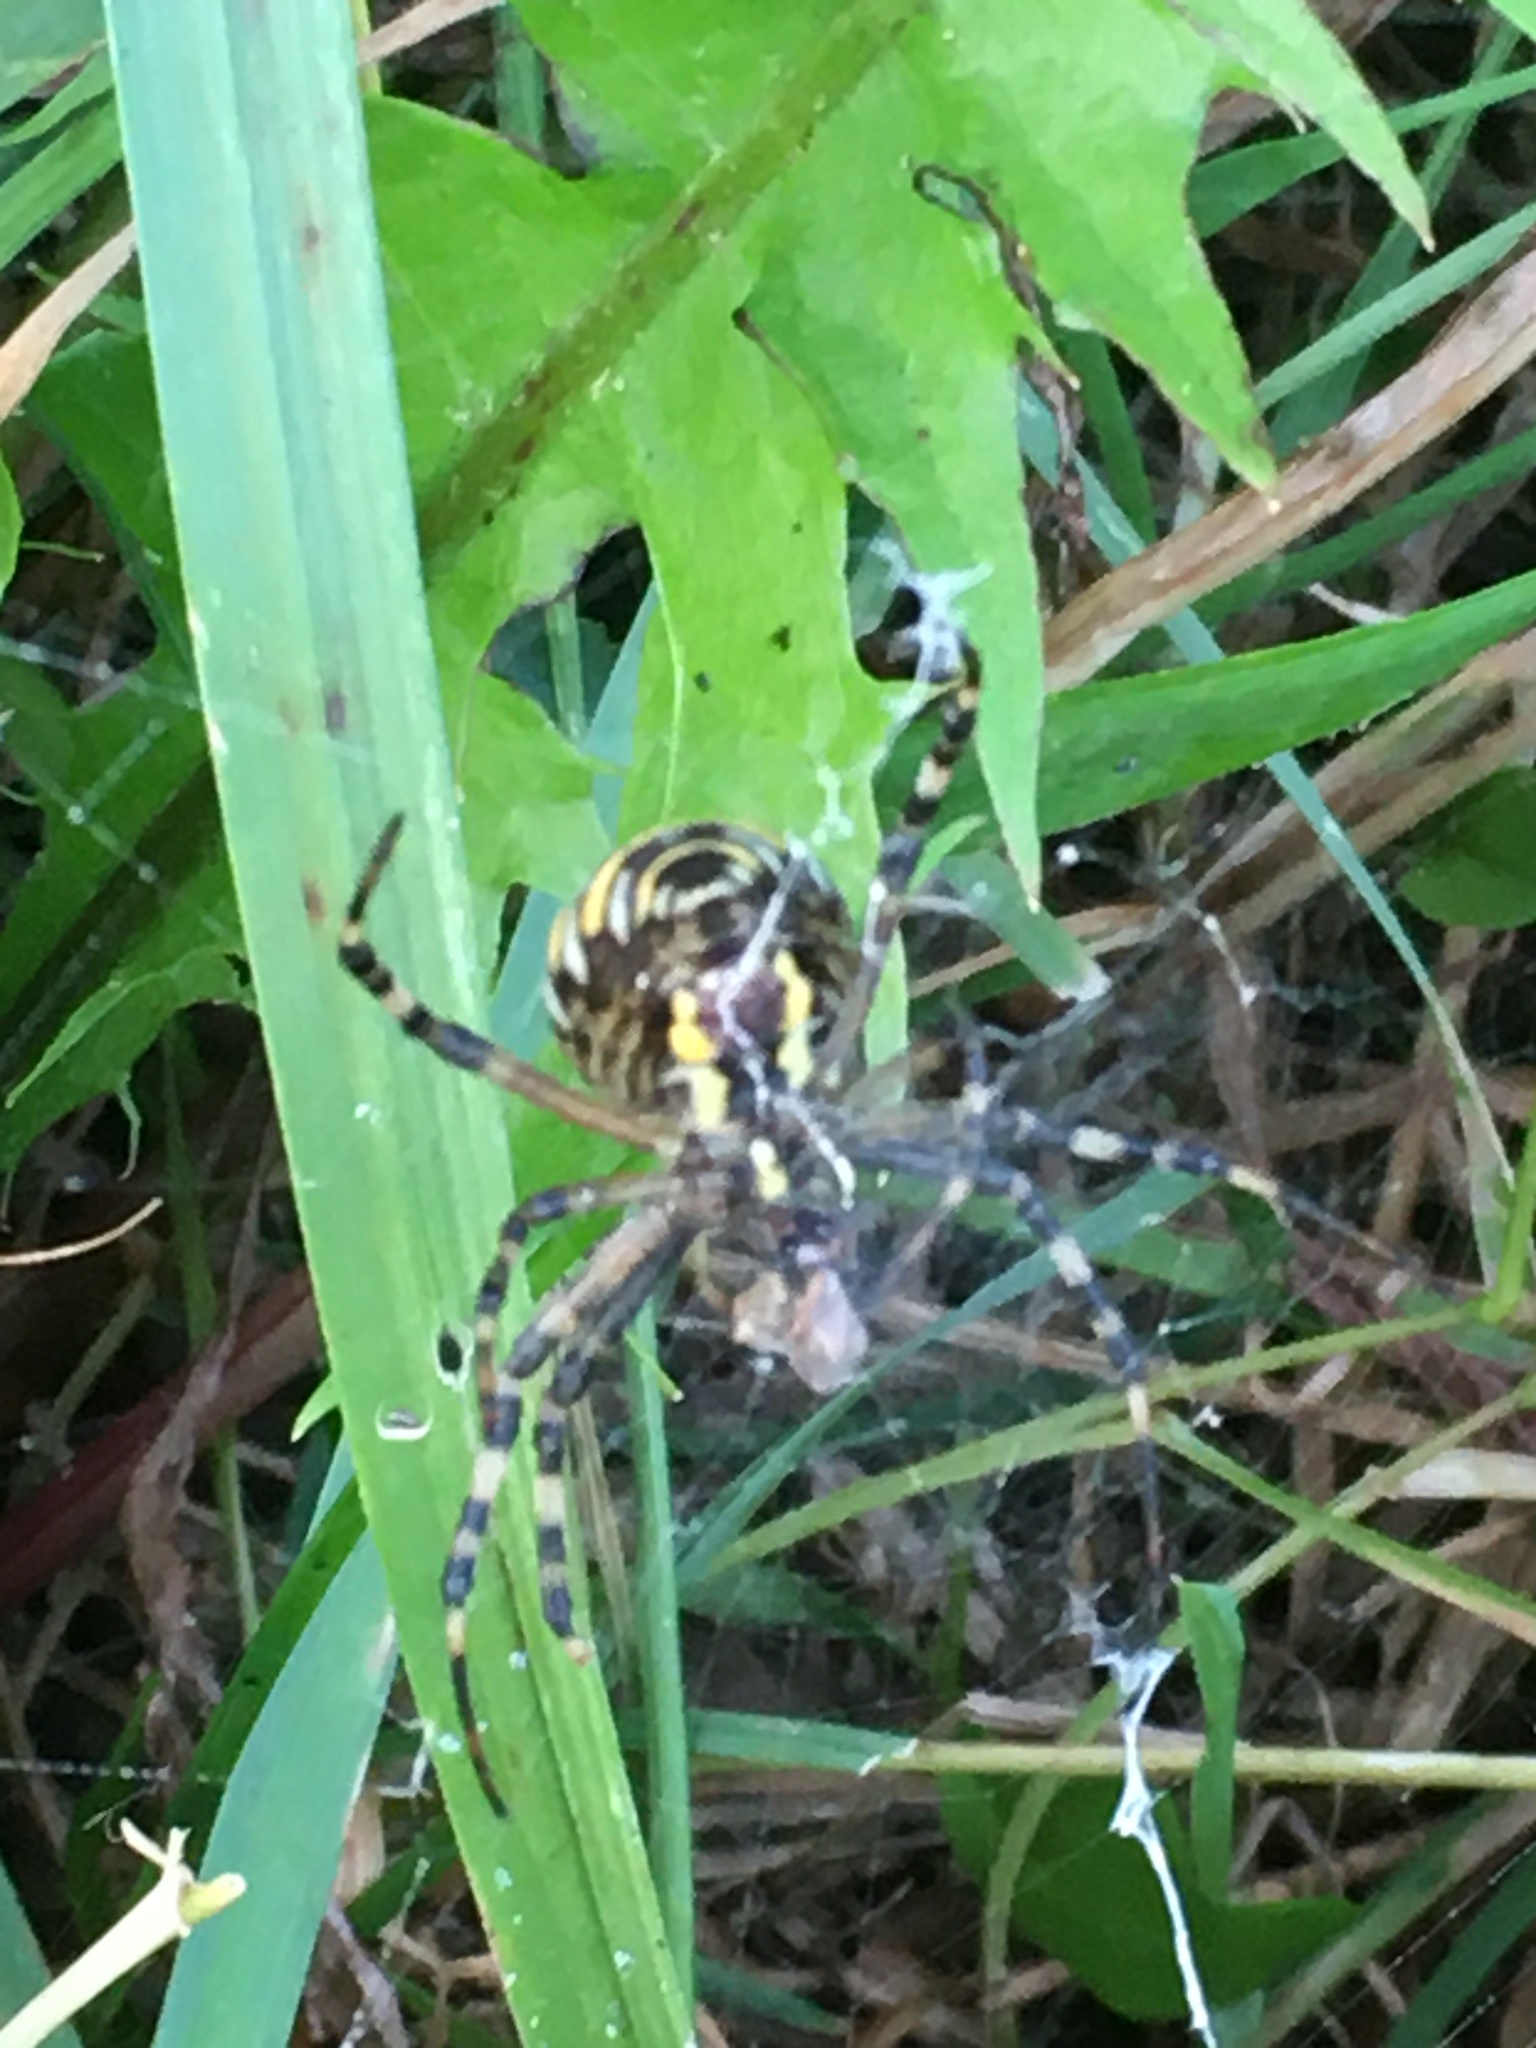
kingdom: Animalia
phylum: Arthropoda
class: Arachnida
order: Araneae
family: Araneidae
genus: Argiope
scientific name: Argiope bruennichi
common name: Wasp spider
